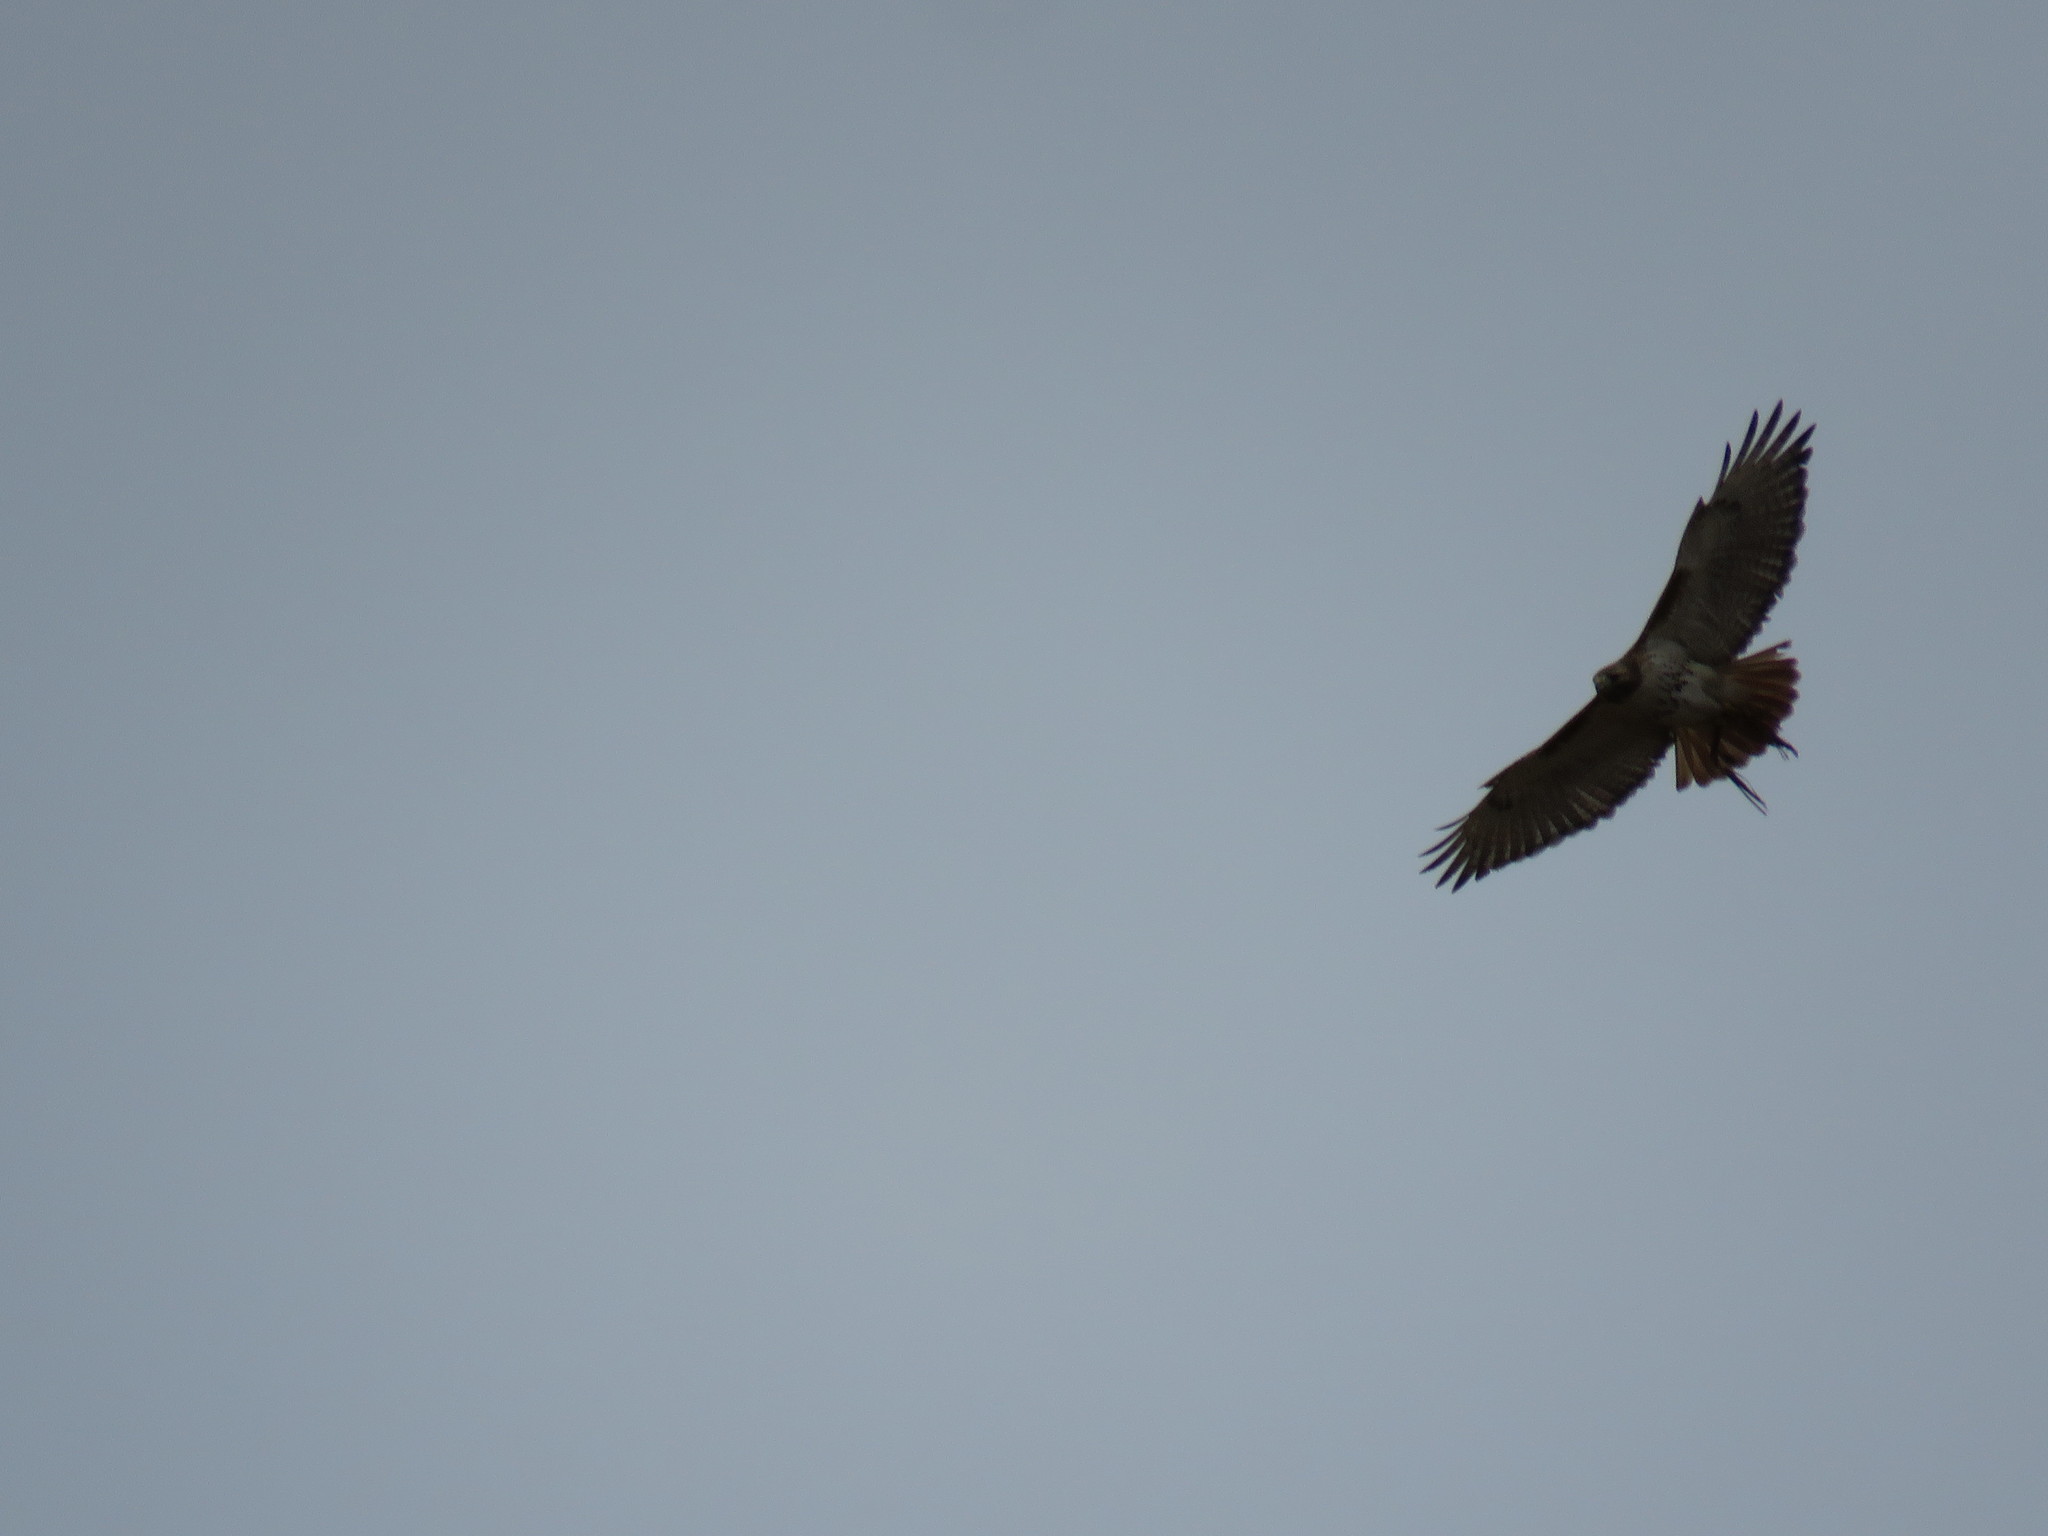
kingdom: Animalia
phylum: Chordata
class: Aves
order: Accipitriformes
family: Accipitridae
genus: Buteo
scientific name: Buteo jamaicensis
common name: Red-tailed hawk
